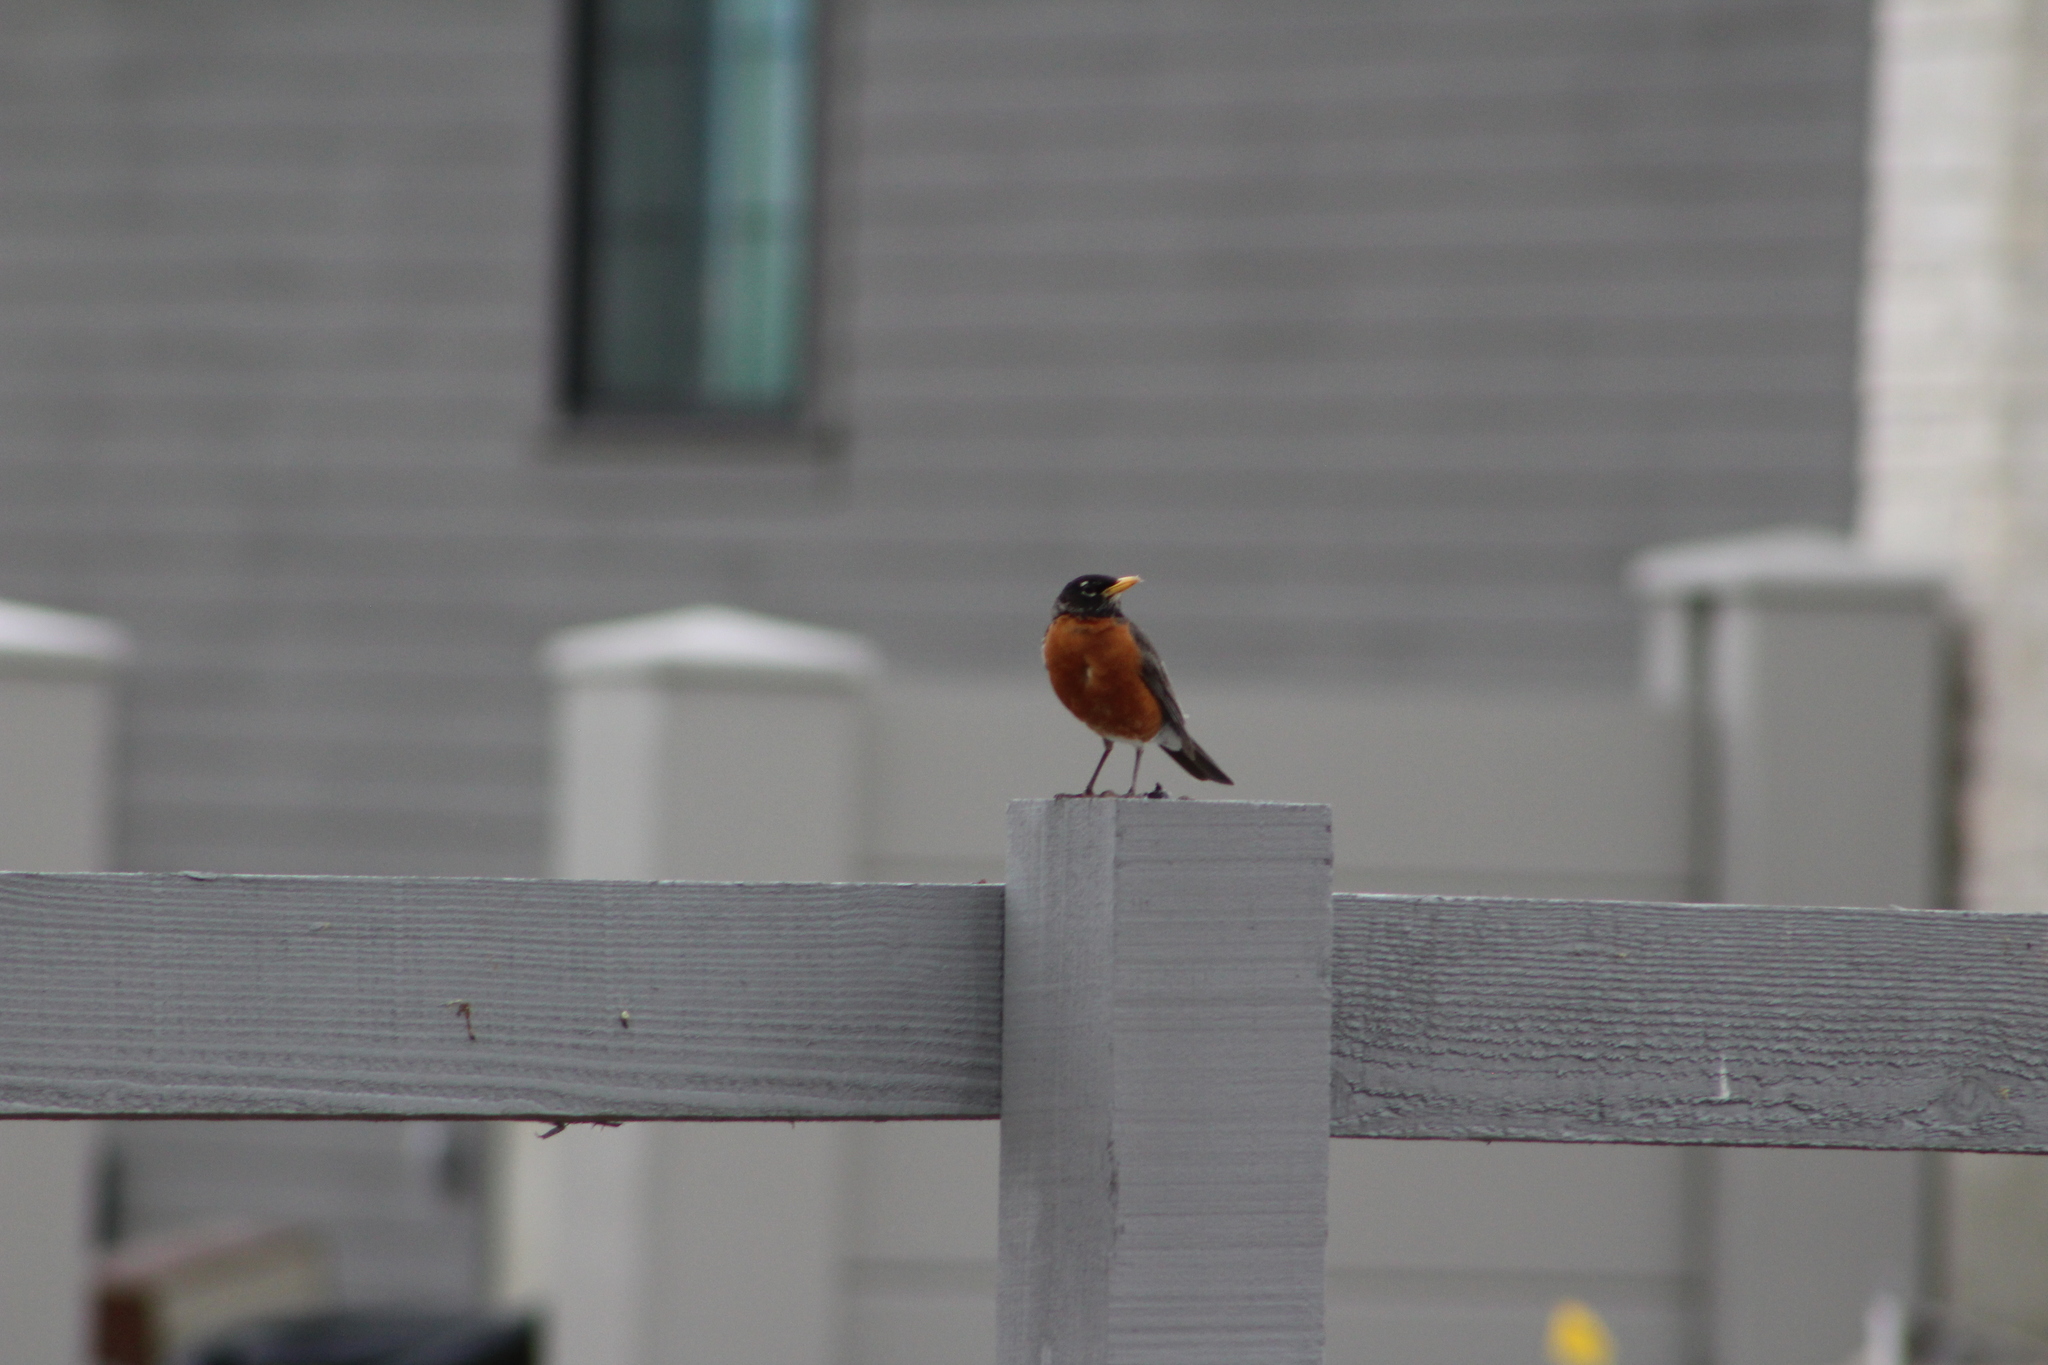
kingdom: Animalia
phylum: Chordata
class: Aves
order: Passeriformes
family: Turdidae
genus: Turdus
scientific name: Turdus migratorius
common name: American robin
